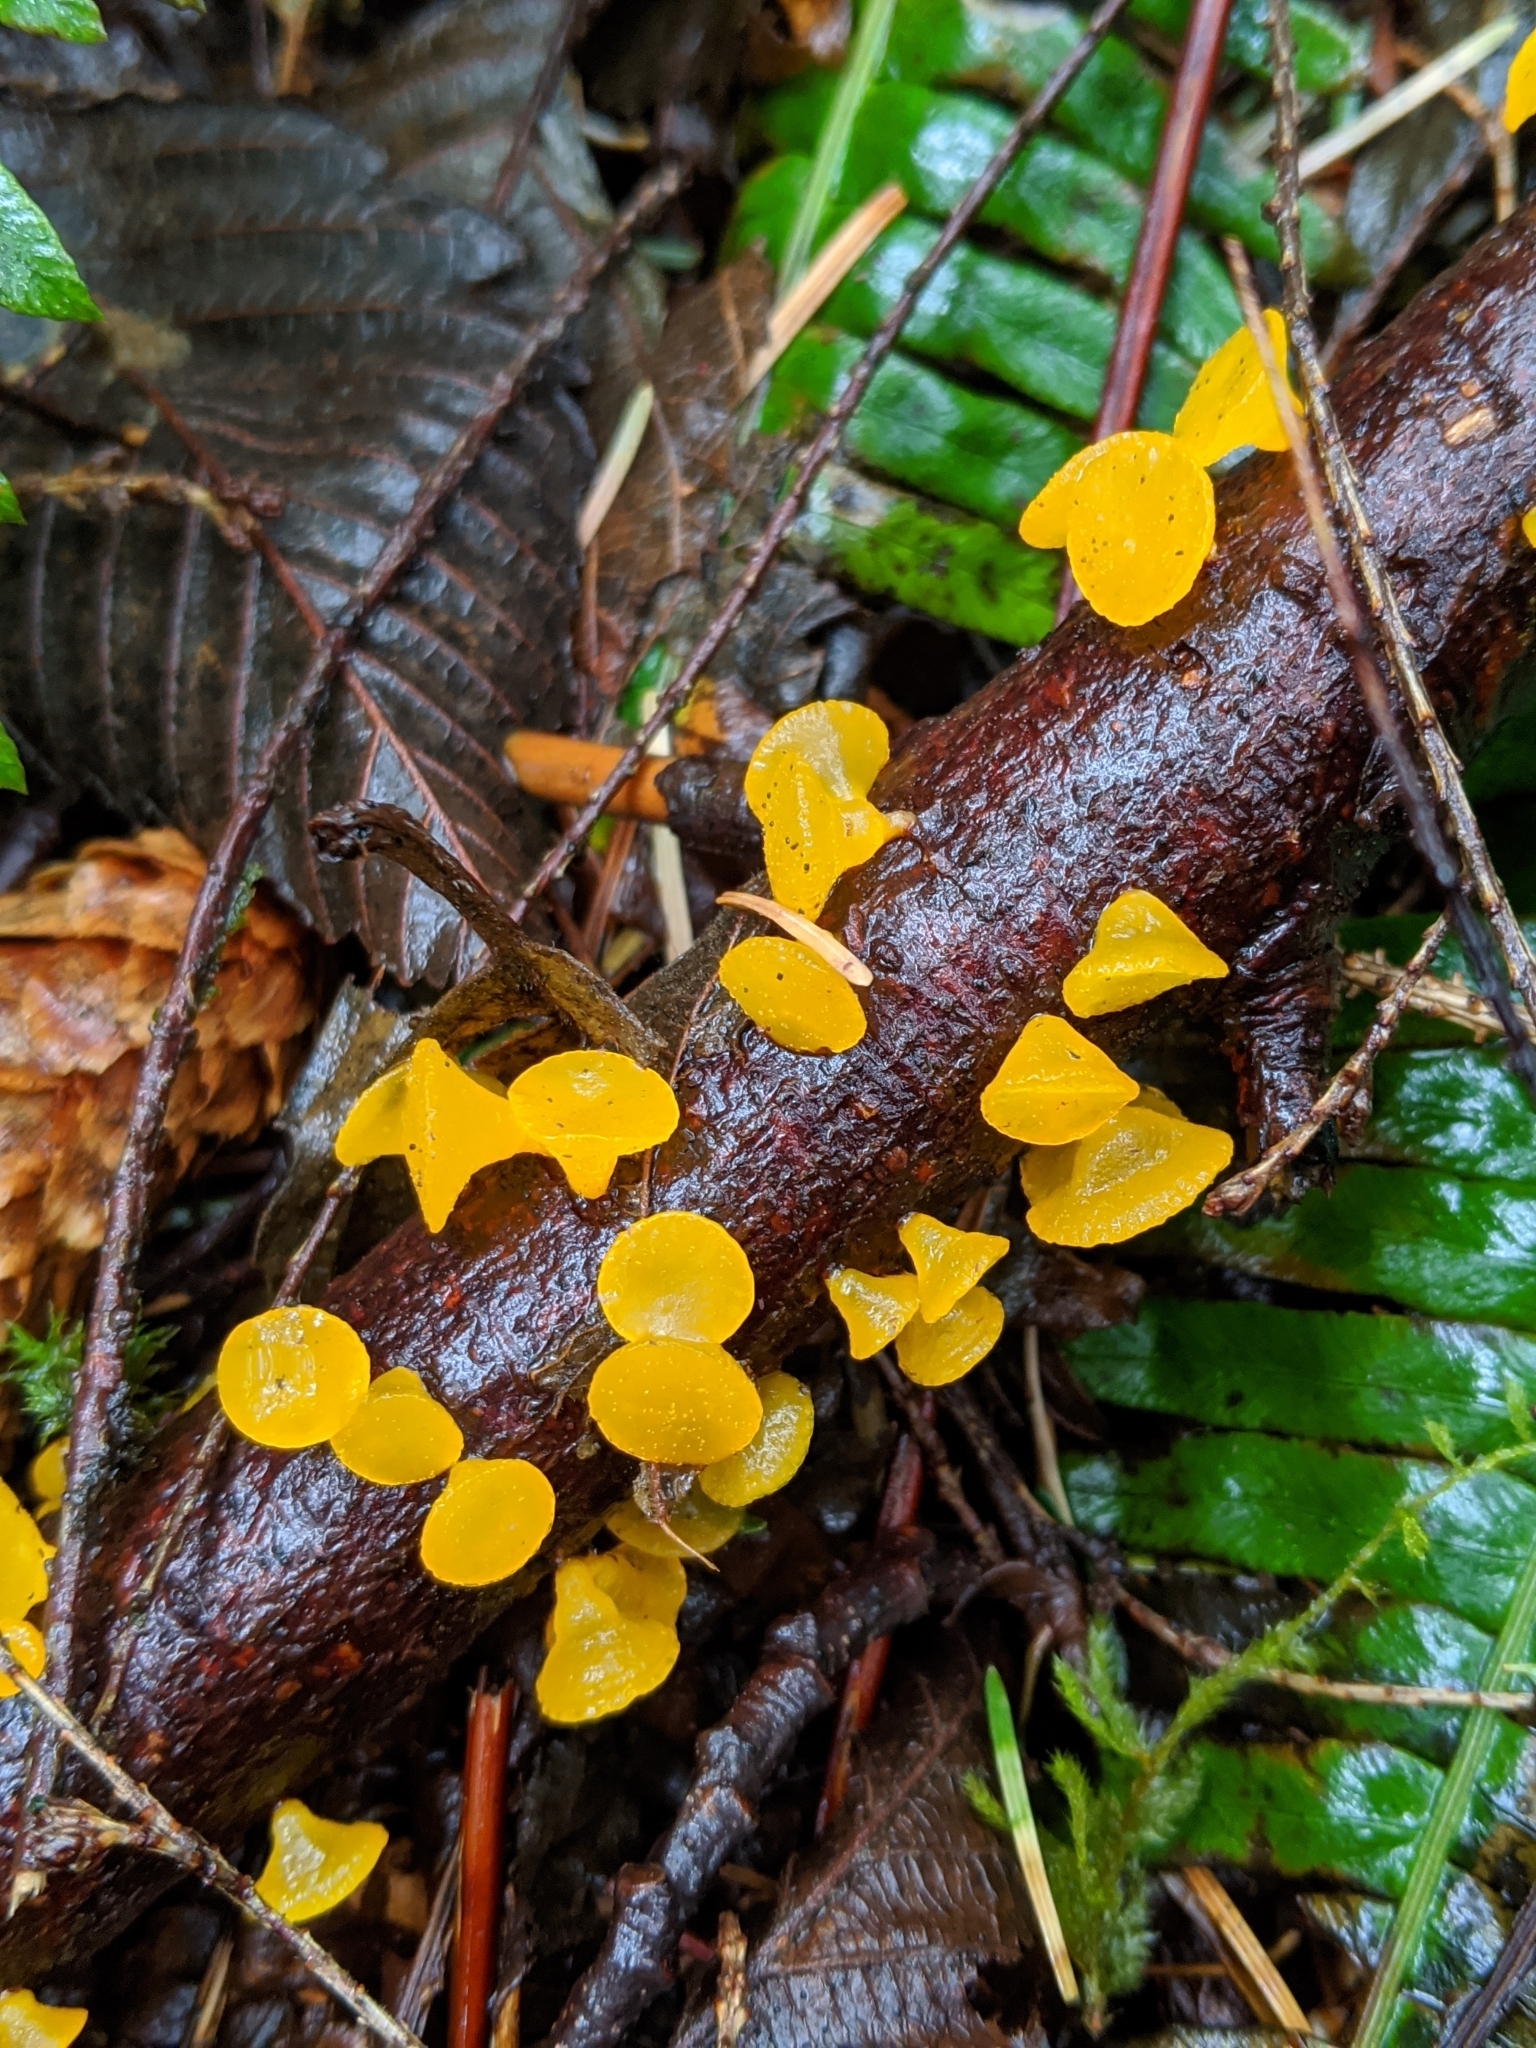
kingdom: Fungi
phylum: Basidiomycota
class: Dacrymycetes
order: Dacrymycetales
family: Dacrymycetaceae
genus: Guepiniopsis
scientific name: Guepiniopsis alpina
